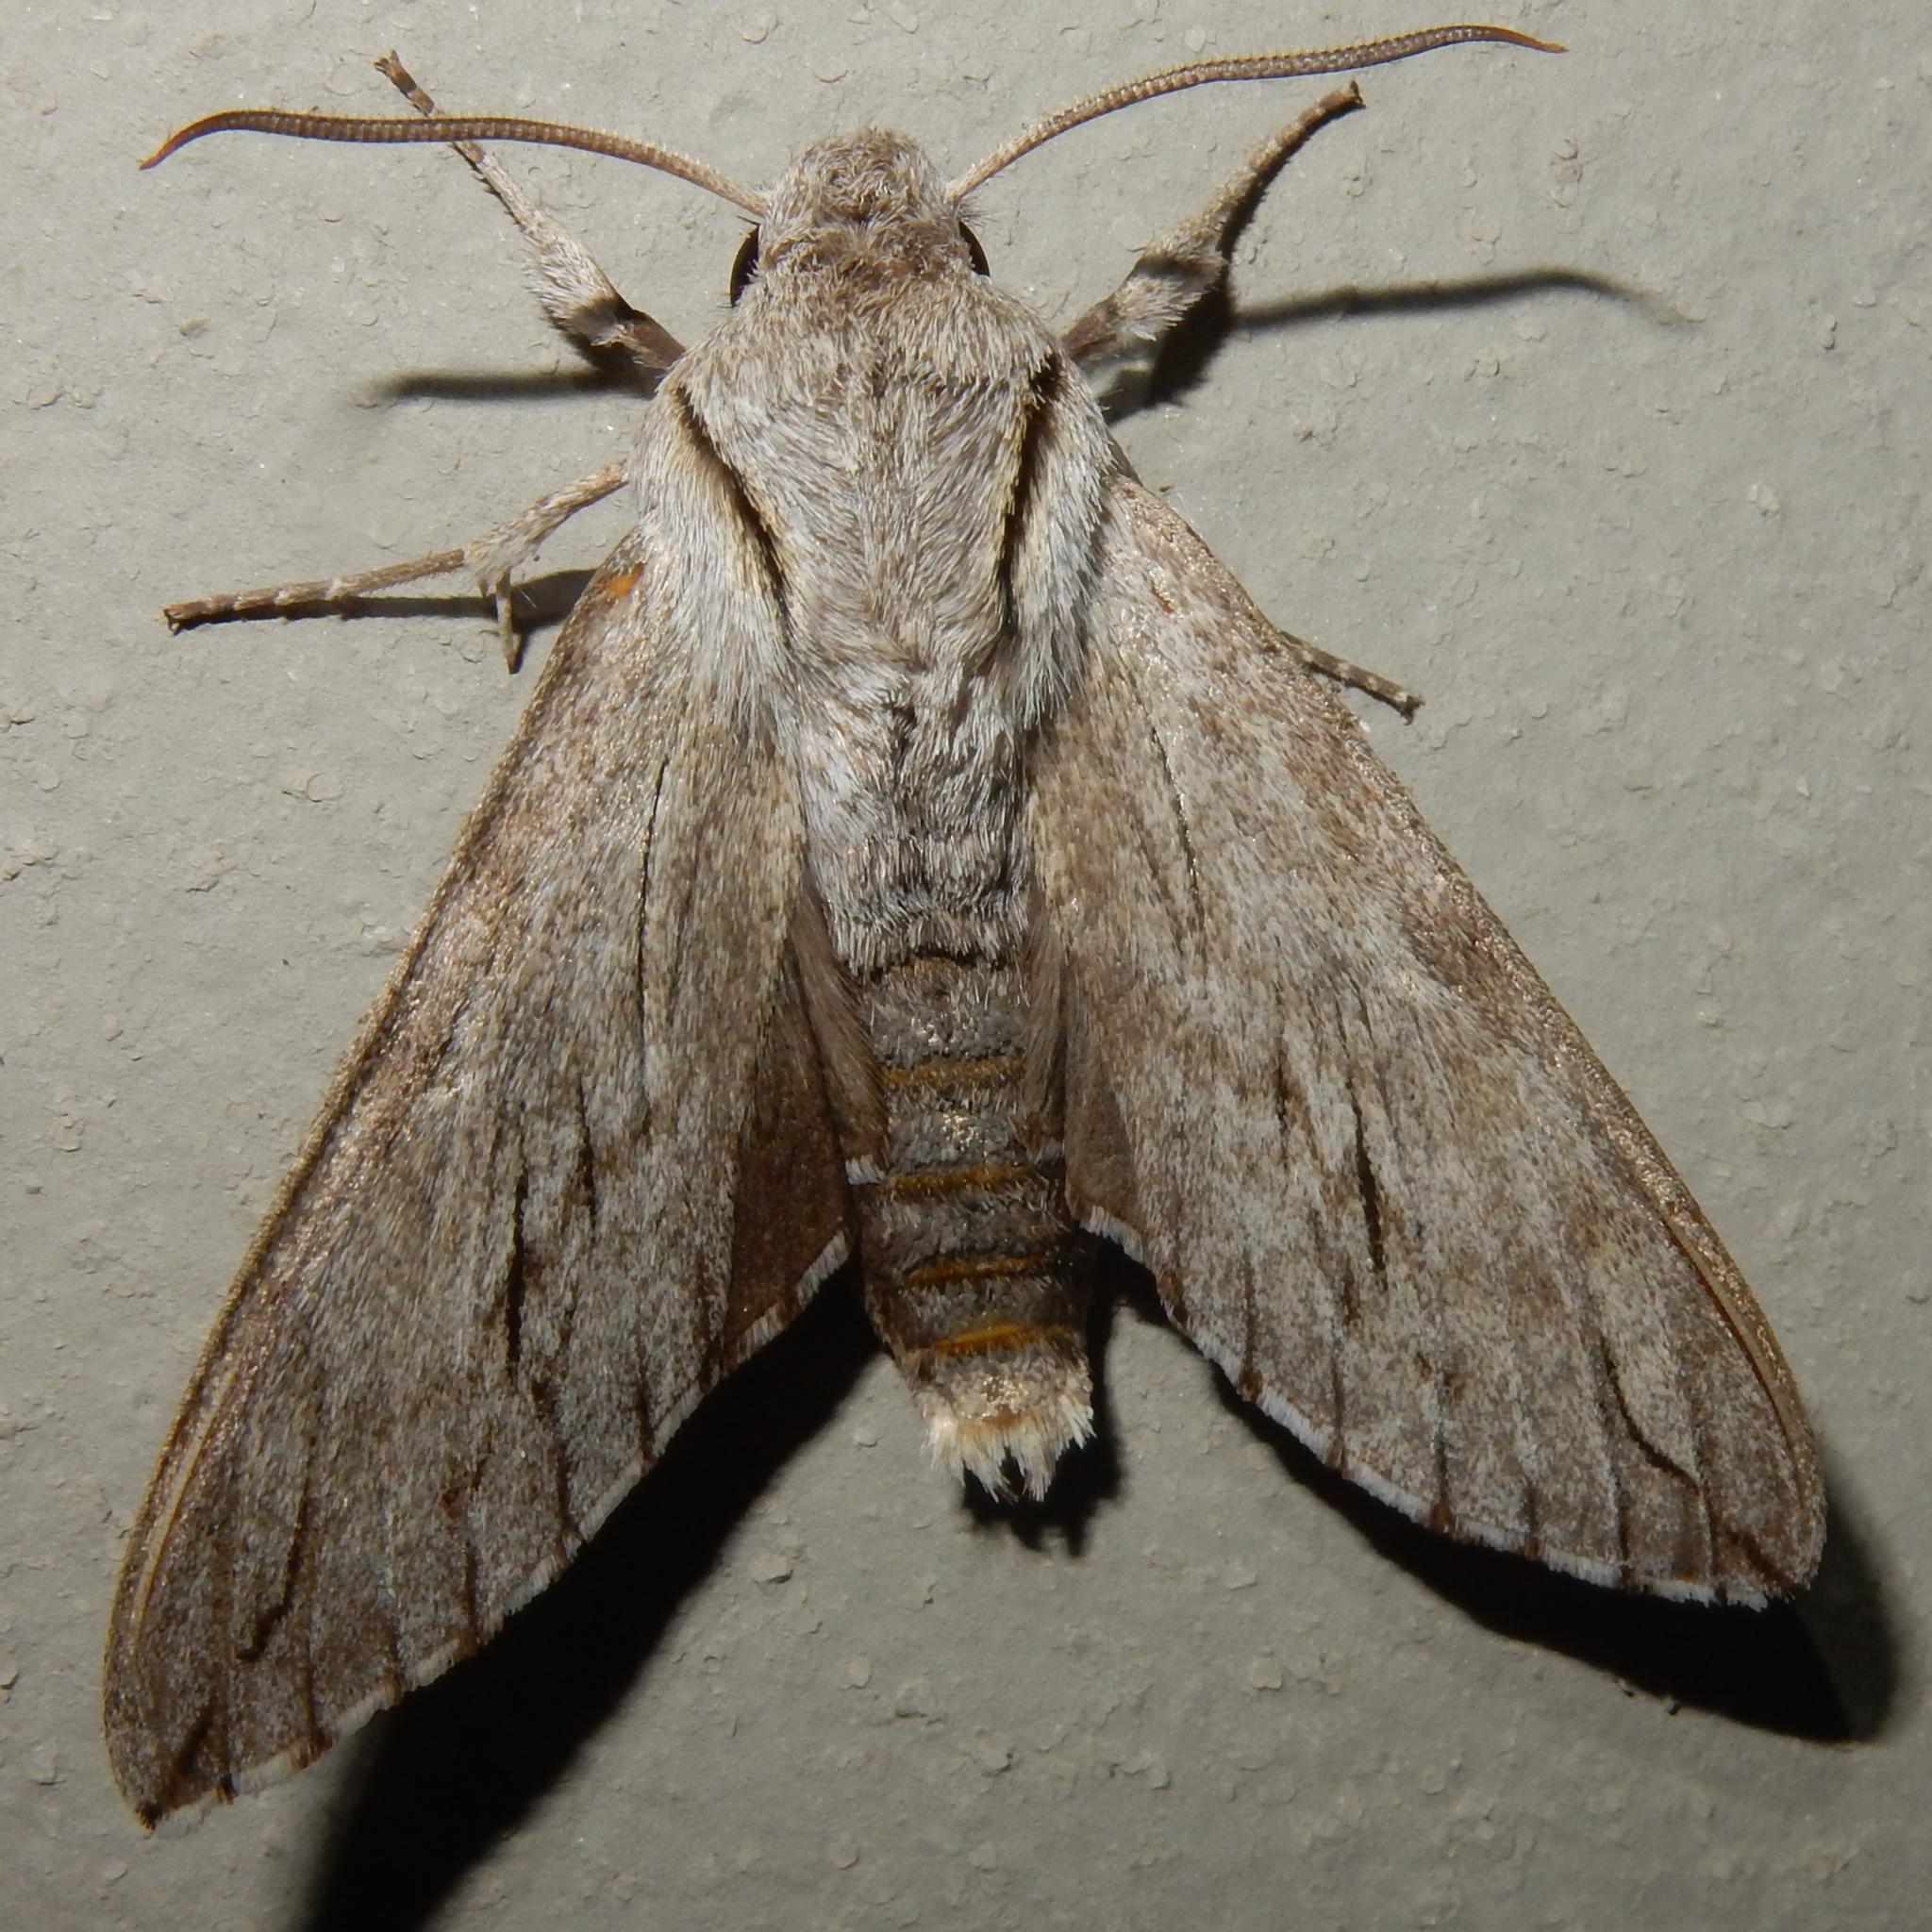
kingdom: Animalia
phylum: Arthropoda
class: Insecta
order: Lepidoptera
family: Sphingidae
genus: Oligographa
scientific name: Oligographa juniperi
